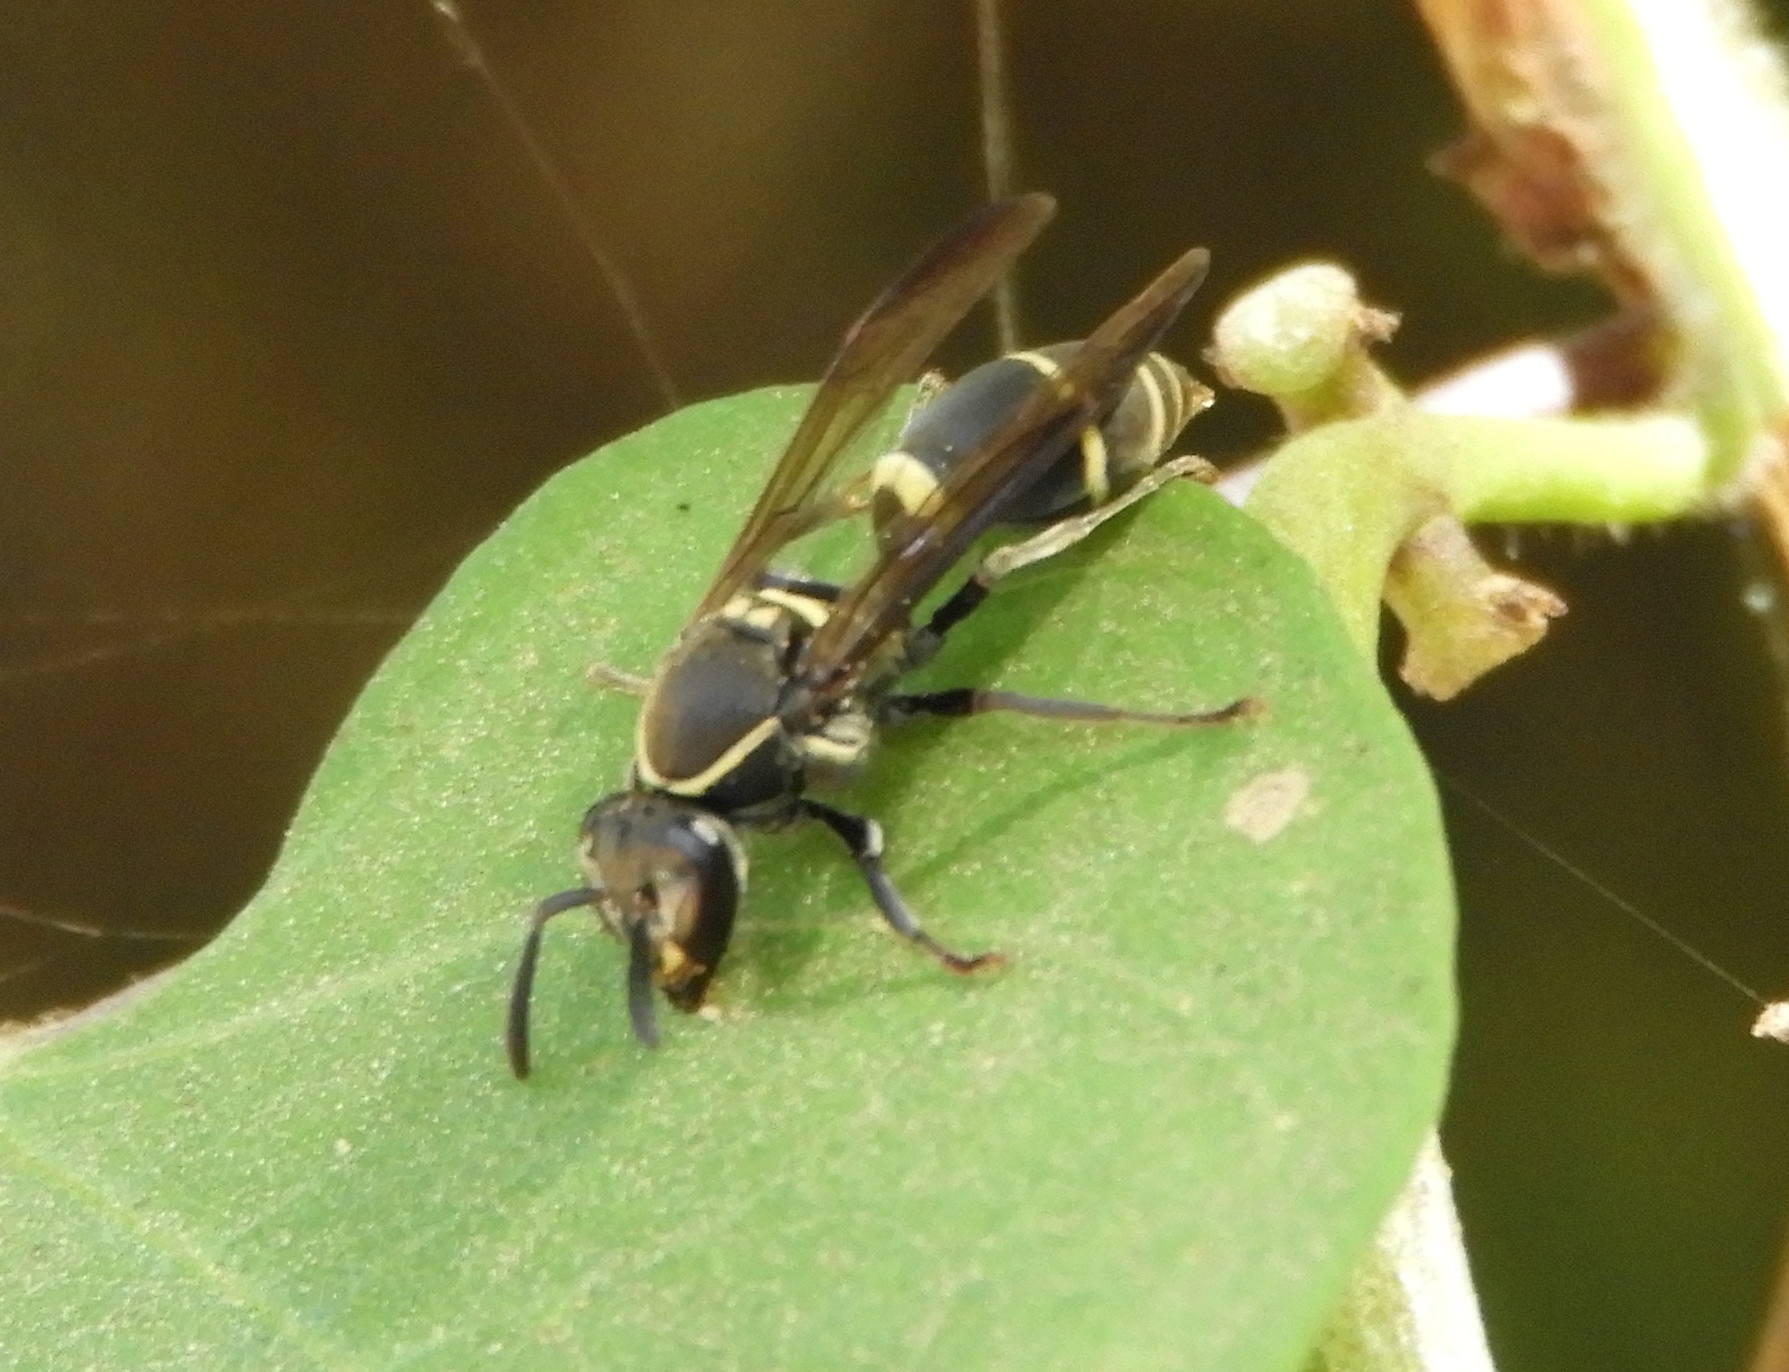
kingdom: Animalia
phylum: Arthropoda
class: Insecta
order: Hymenoptera
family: Vespidae
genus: Myrapetra
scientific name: Myrapetra
